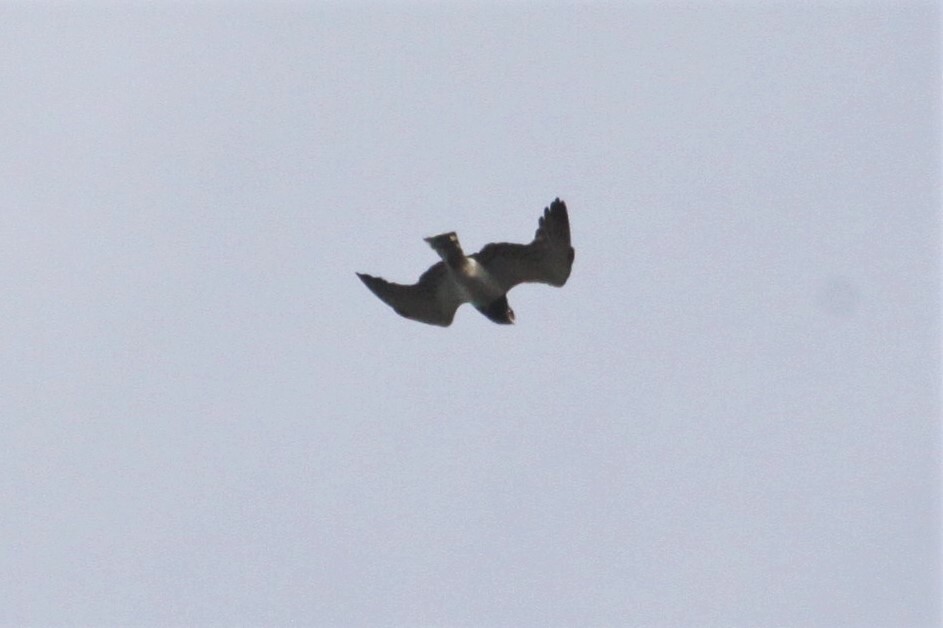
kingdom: Animalia
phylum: Chordata
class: Aves
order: Accipitriformes
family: Accipitridae
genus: Circaetus
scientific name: Circaetus pectoralis
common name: Black-chested snake eagle
